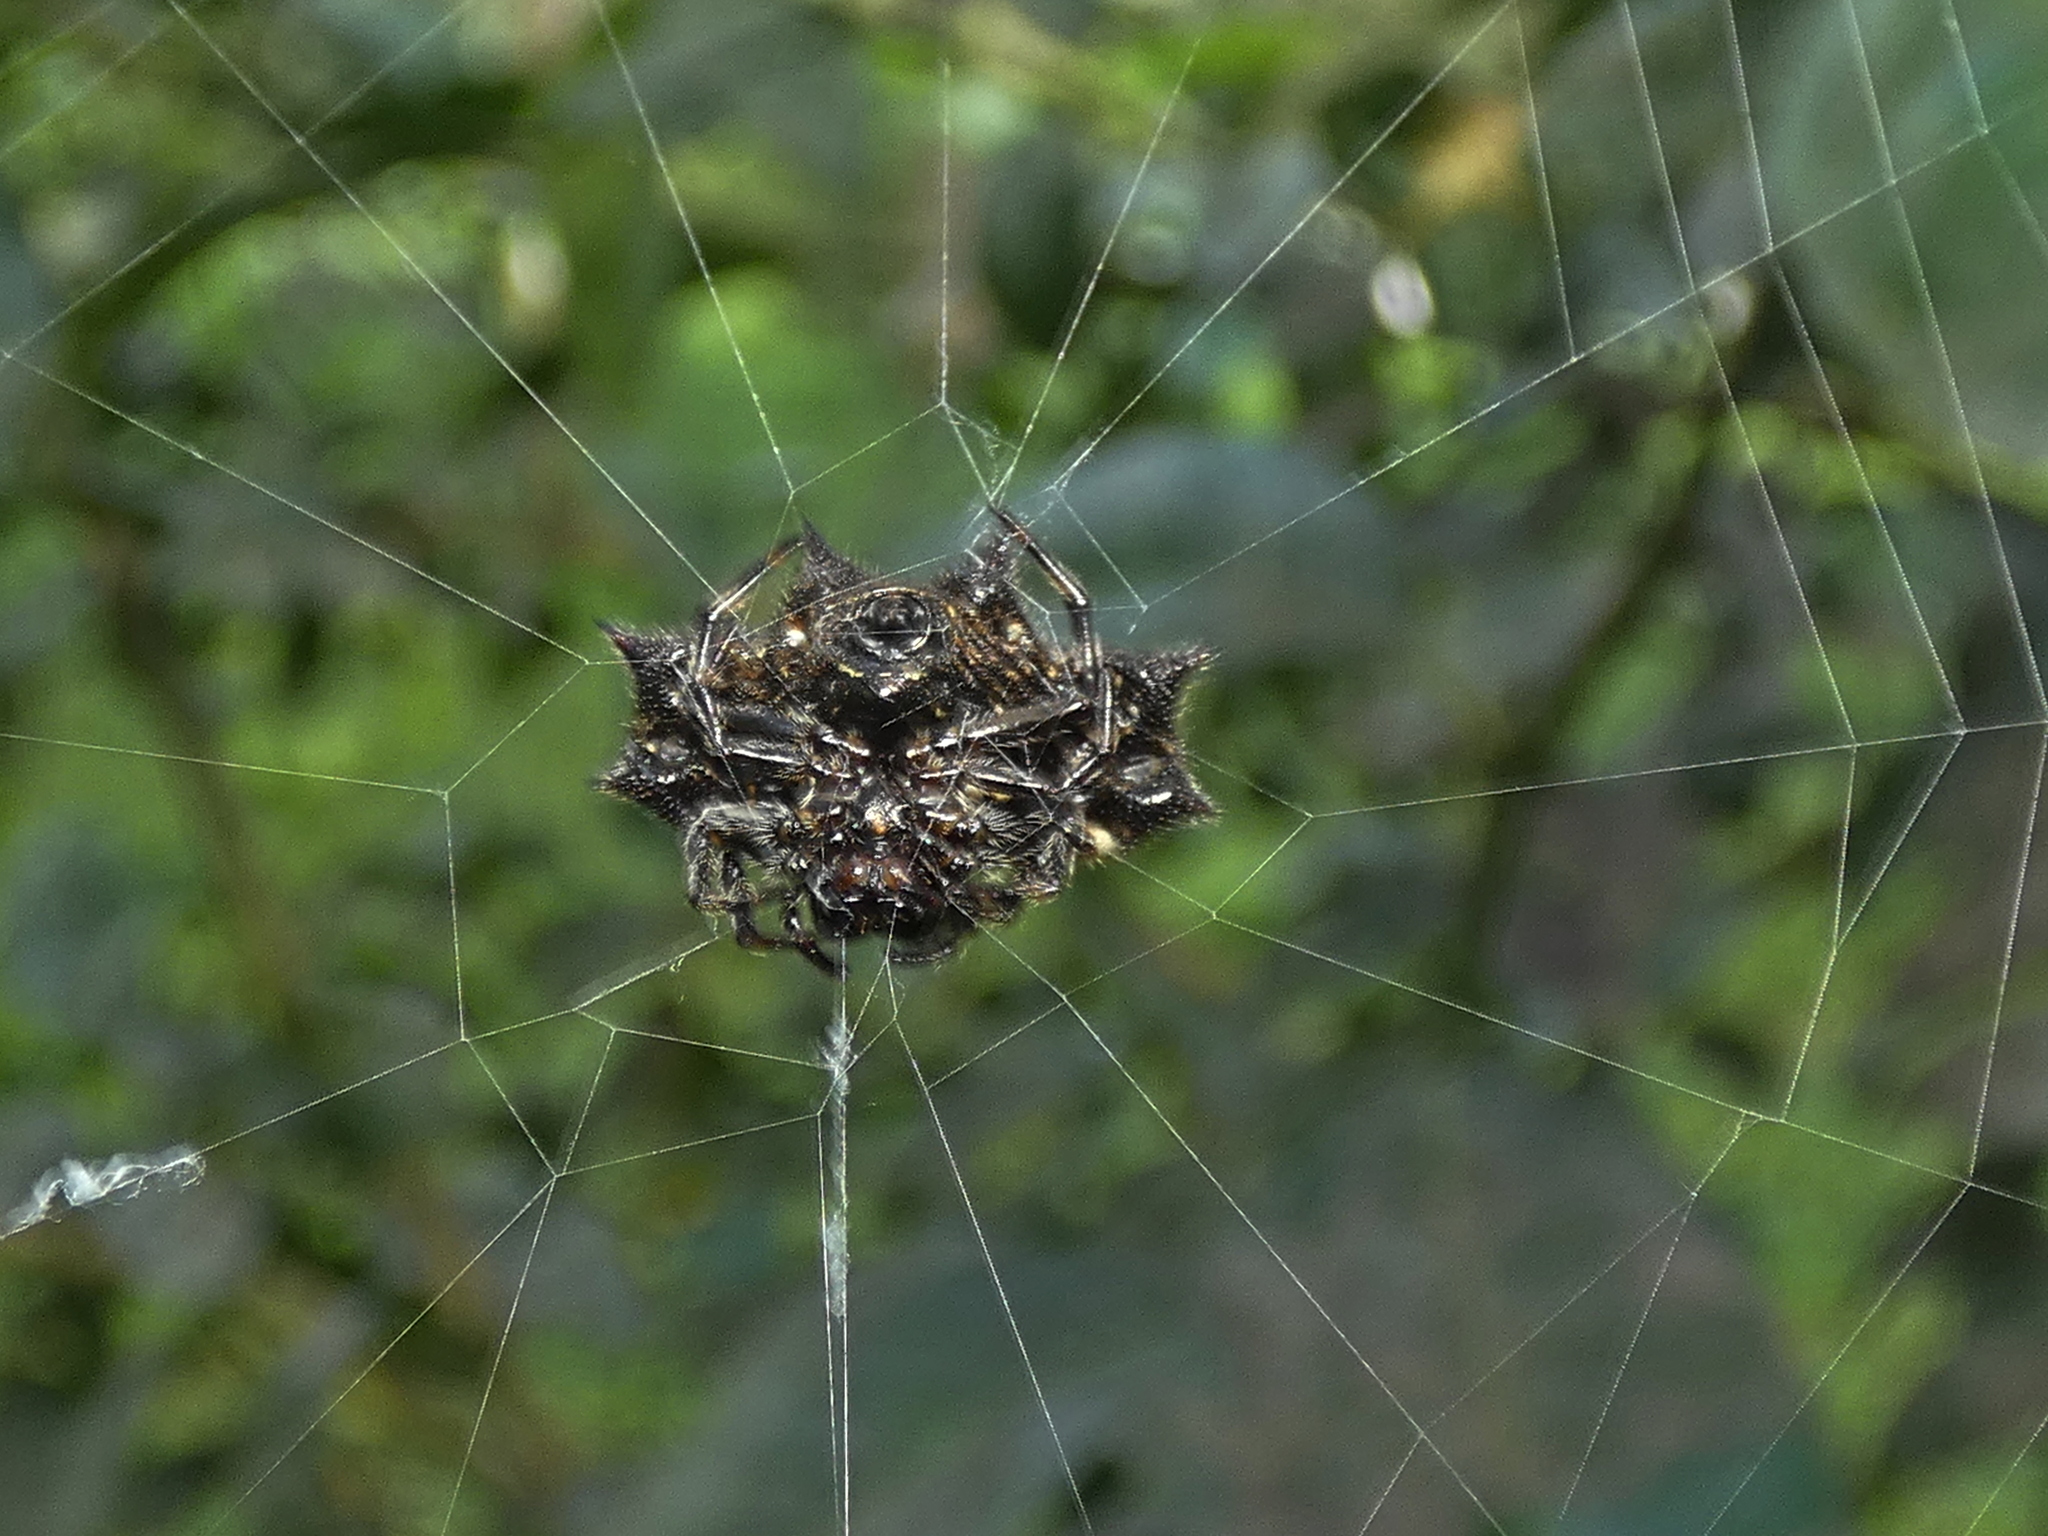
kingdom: Animalia
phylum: Arthropoda
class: Arachnida
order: Araneae
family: Araneidae
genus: Gasteracantha
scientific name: Gasteracantha cancriformis
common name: Orb weavers
